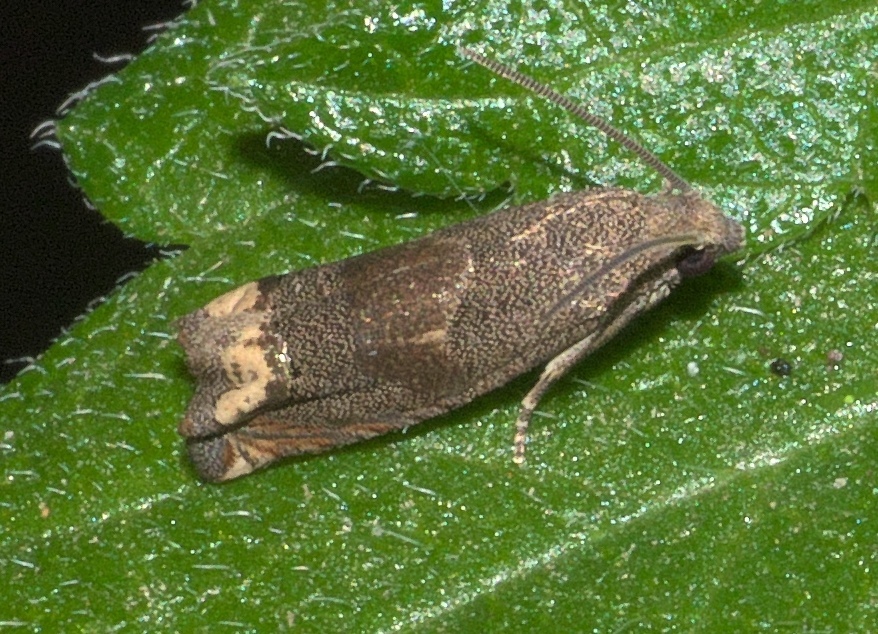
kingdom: Animalia
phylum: Arthropoda
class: Insecta
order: Lepidoptera
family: Tortricidae
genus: Epiblema
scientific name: Epiblema strenuana
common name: Ragweed borer moth
